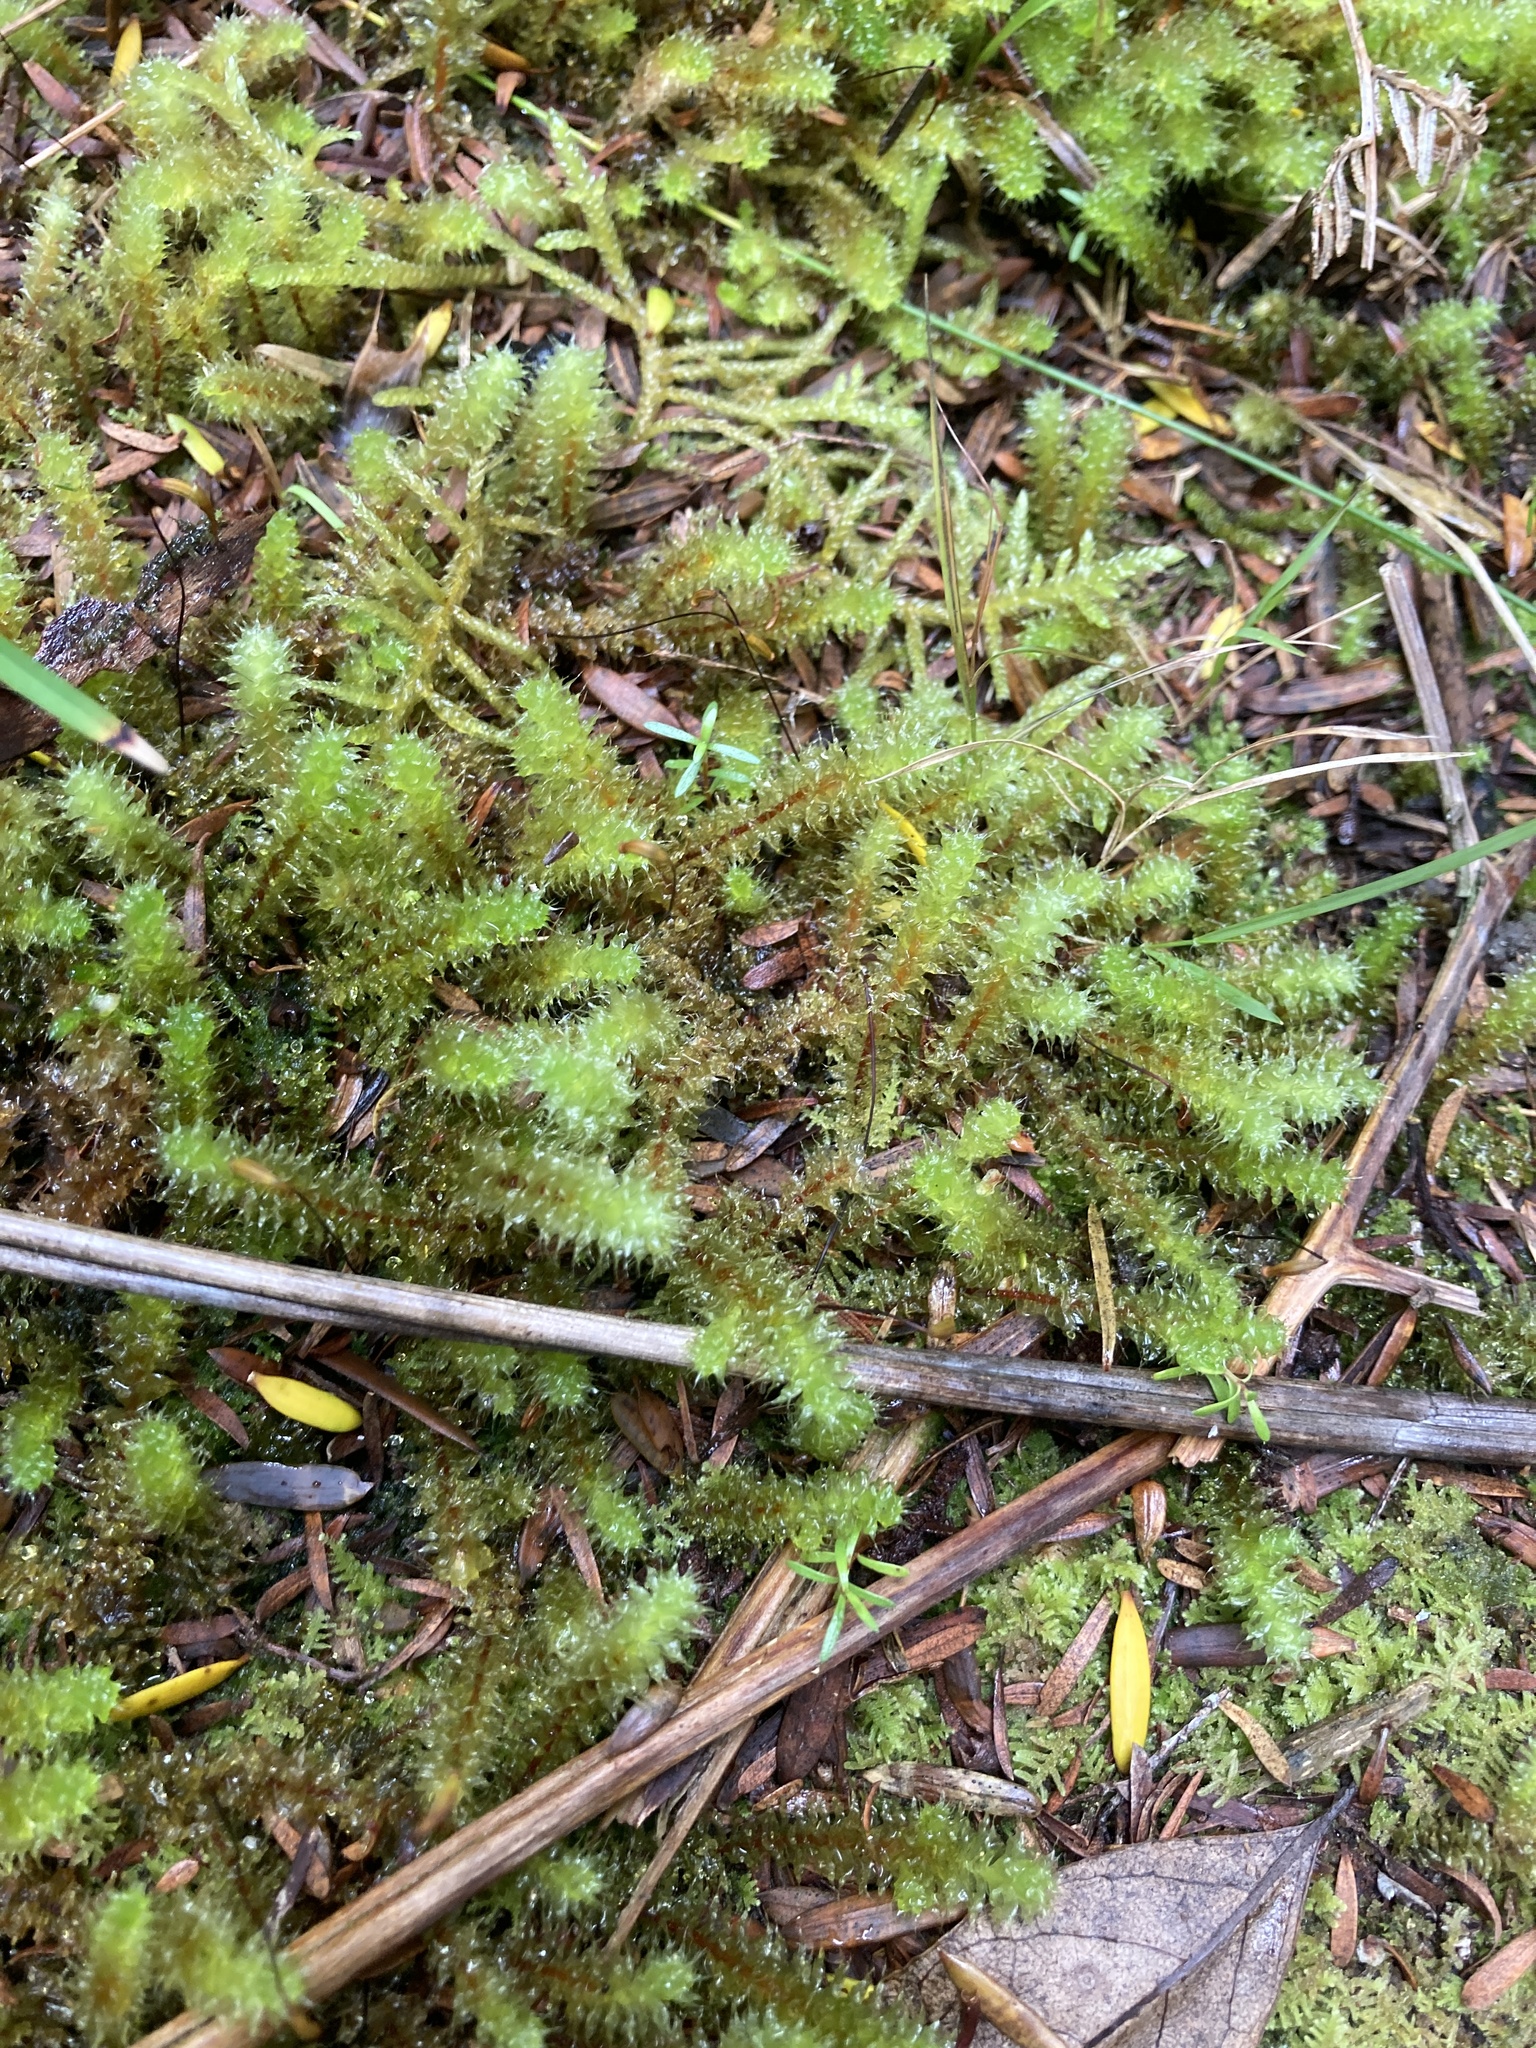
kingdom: Plantae
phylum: Bryophyta
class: Bryopsida
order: Ptychomniales
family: Ptychomniaceae
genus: Ptychomnion
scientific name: Ptychomnion aciculare
